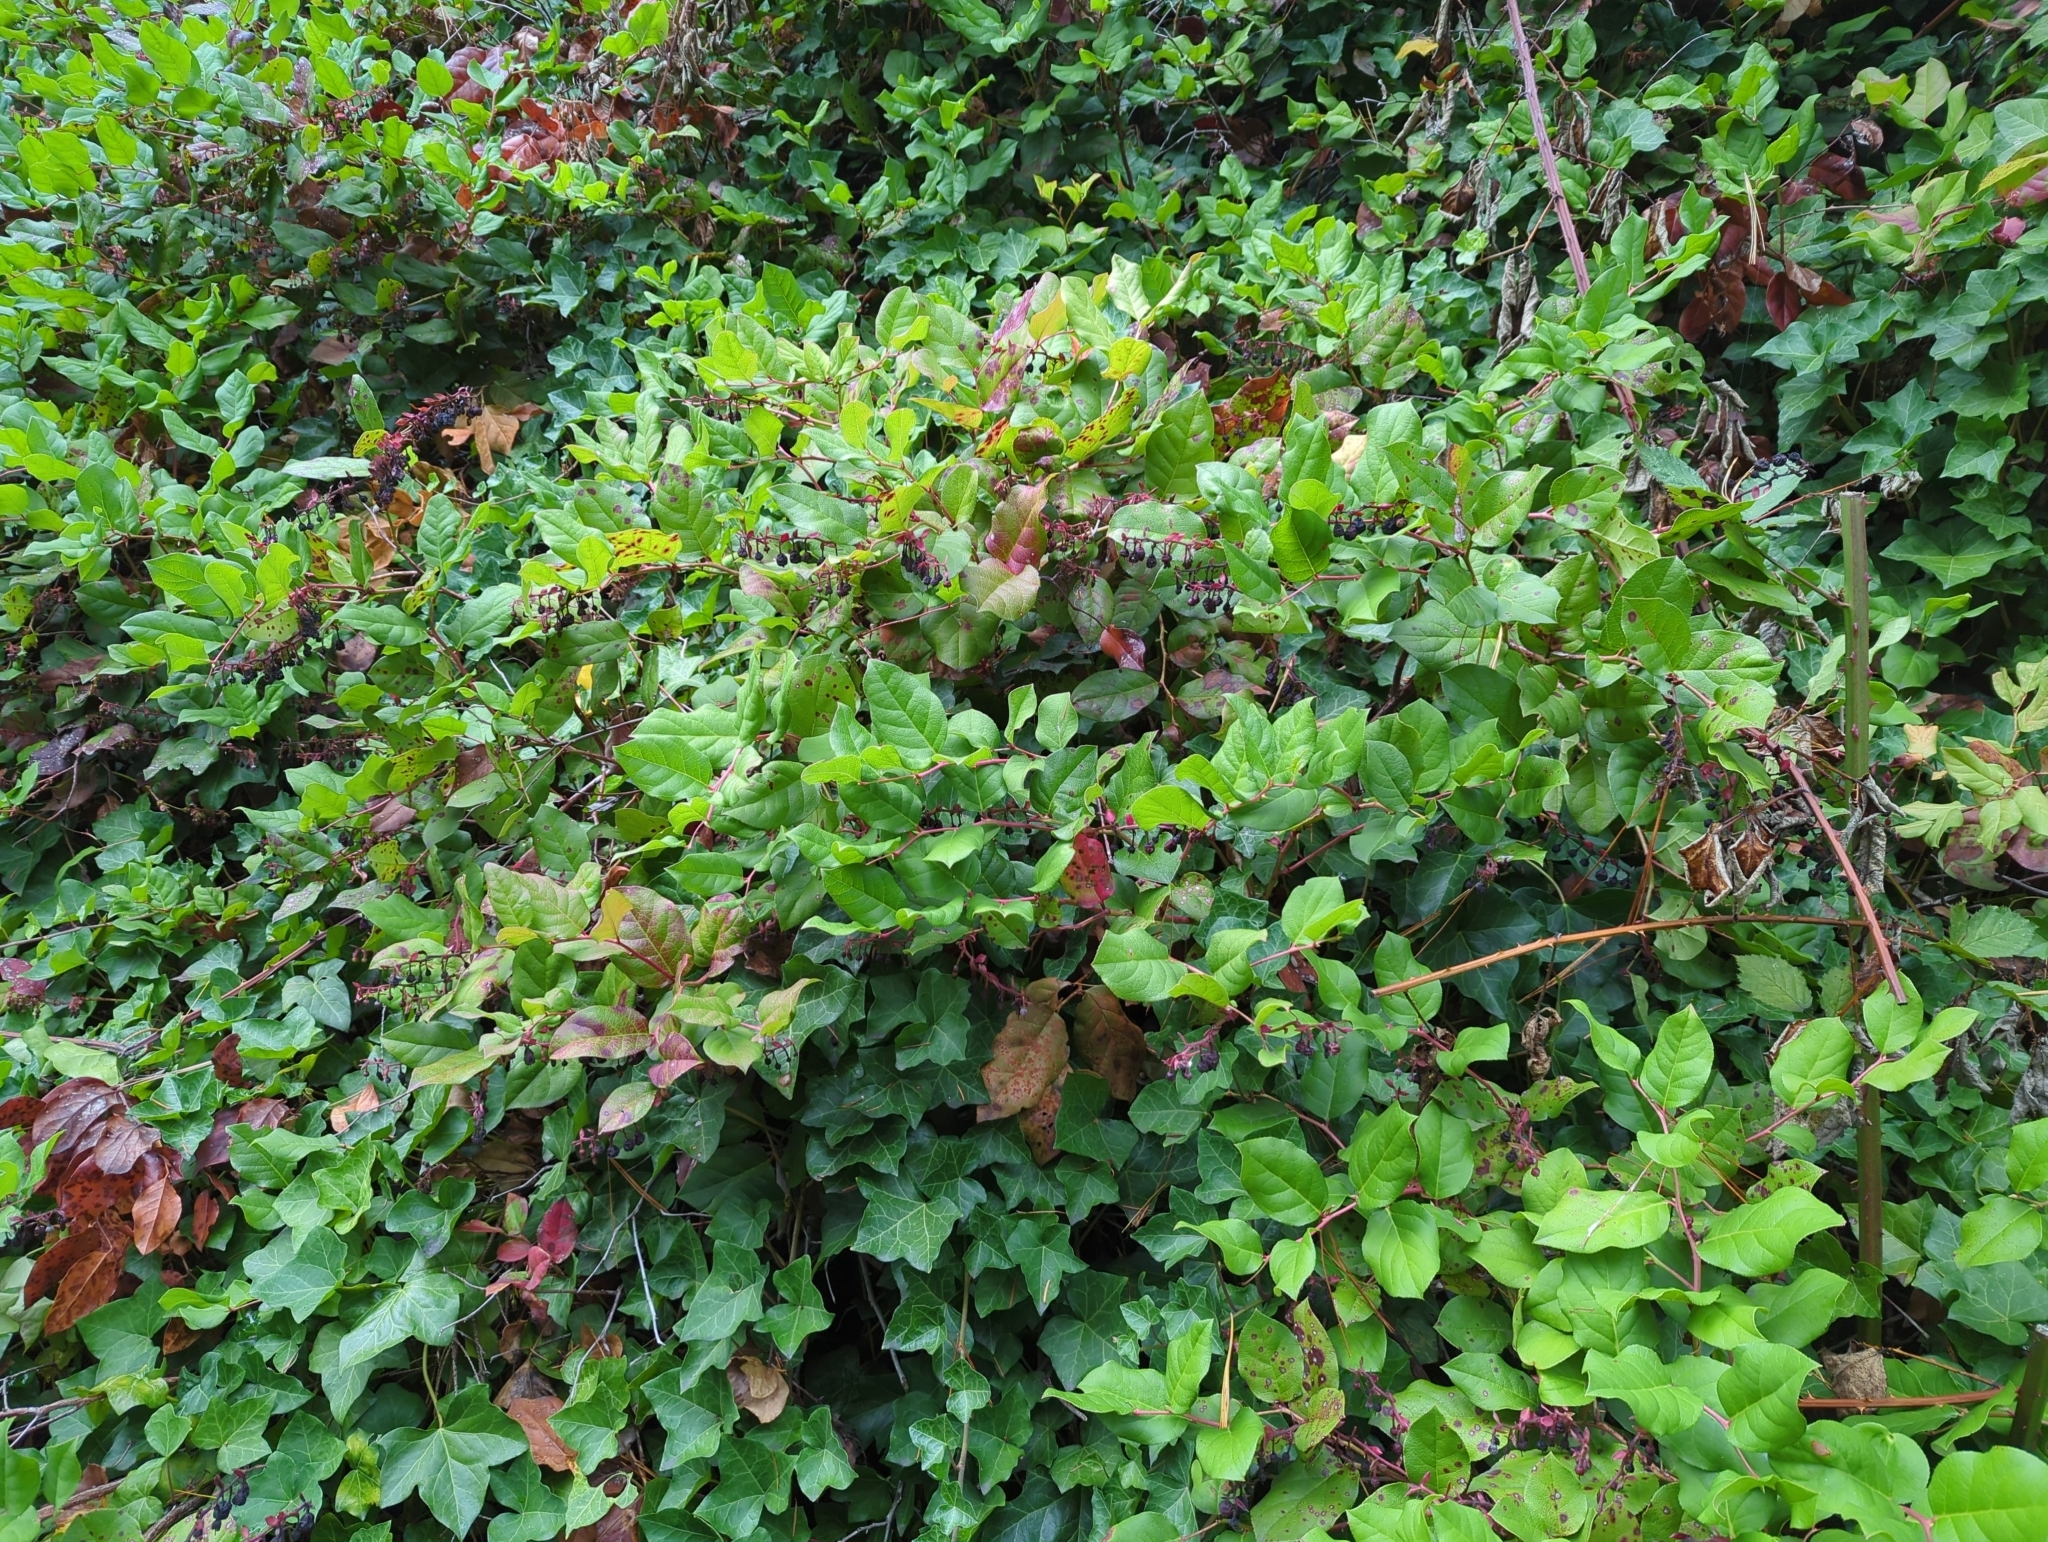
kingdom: Plantae
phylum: Tracheophyta
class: Magnoliopsida
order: Ericales
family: Ericaceae
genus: Gaultheria
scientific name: Gaultheria shallon
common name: Shallon
